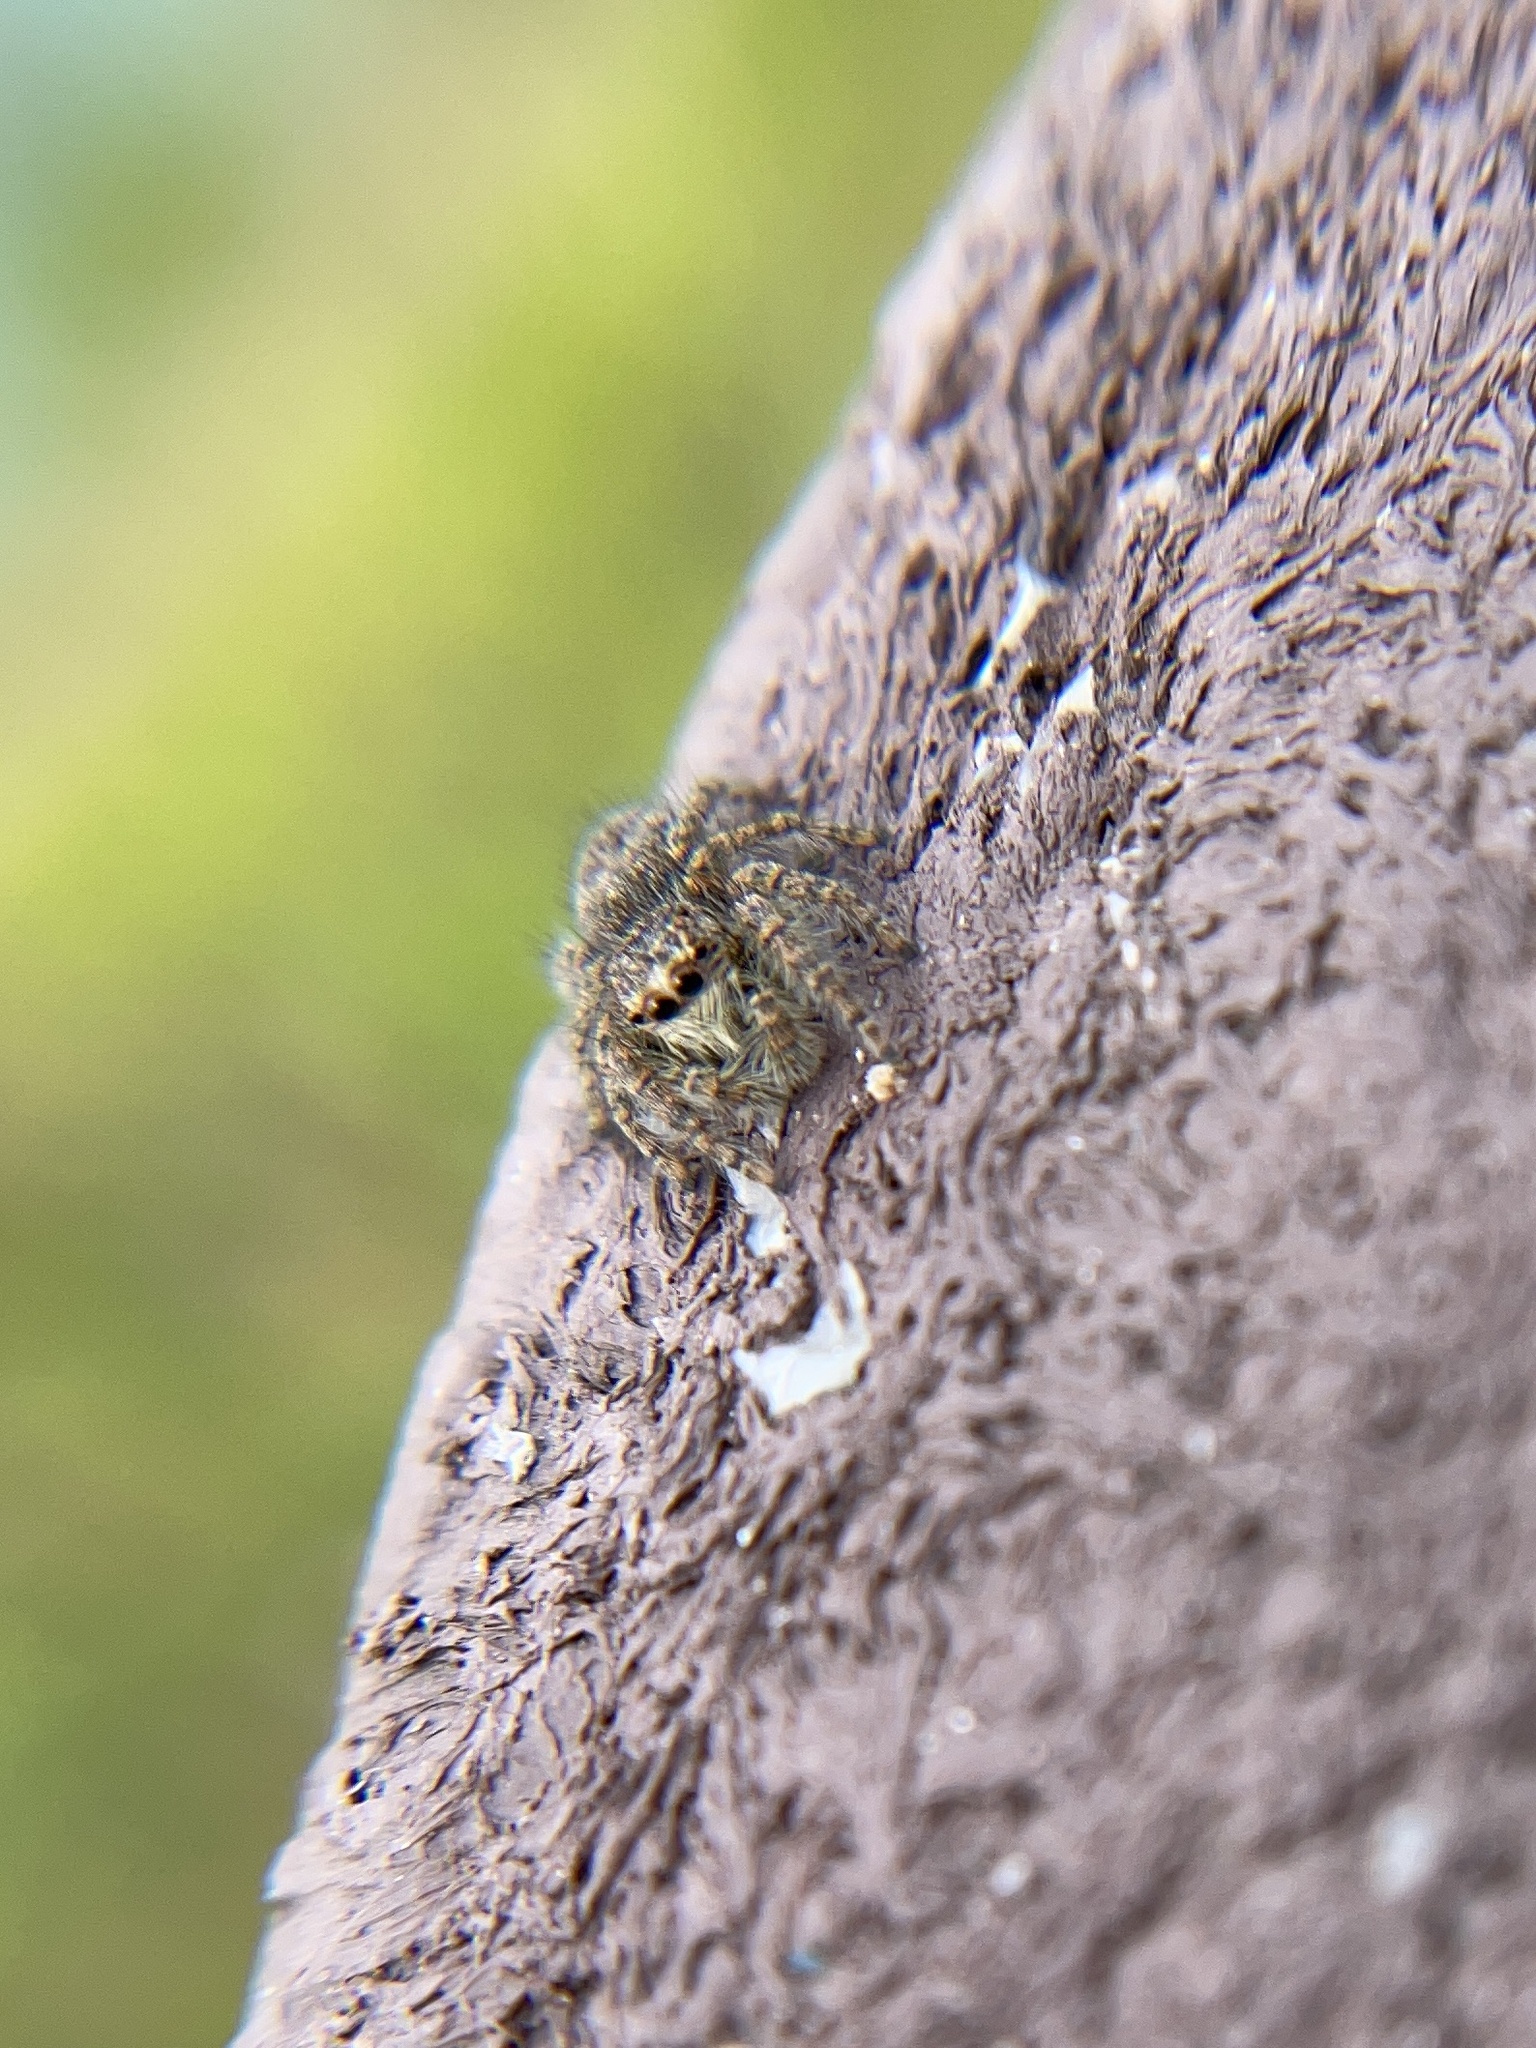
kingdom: Animalia
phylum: Arthropoda
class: Arachnida
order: Araneae
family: Salticidae
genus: Philaeus
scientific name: Philaeus chrysops
